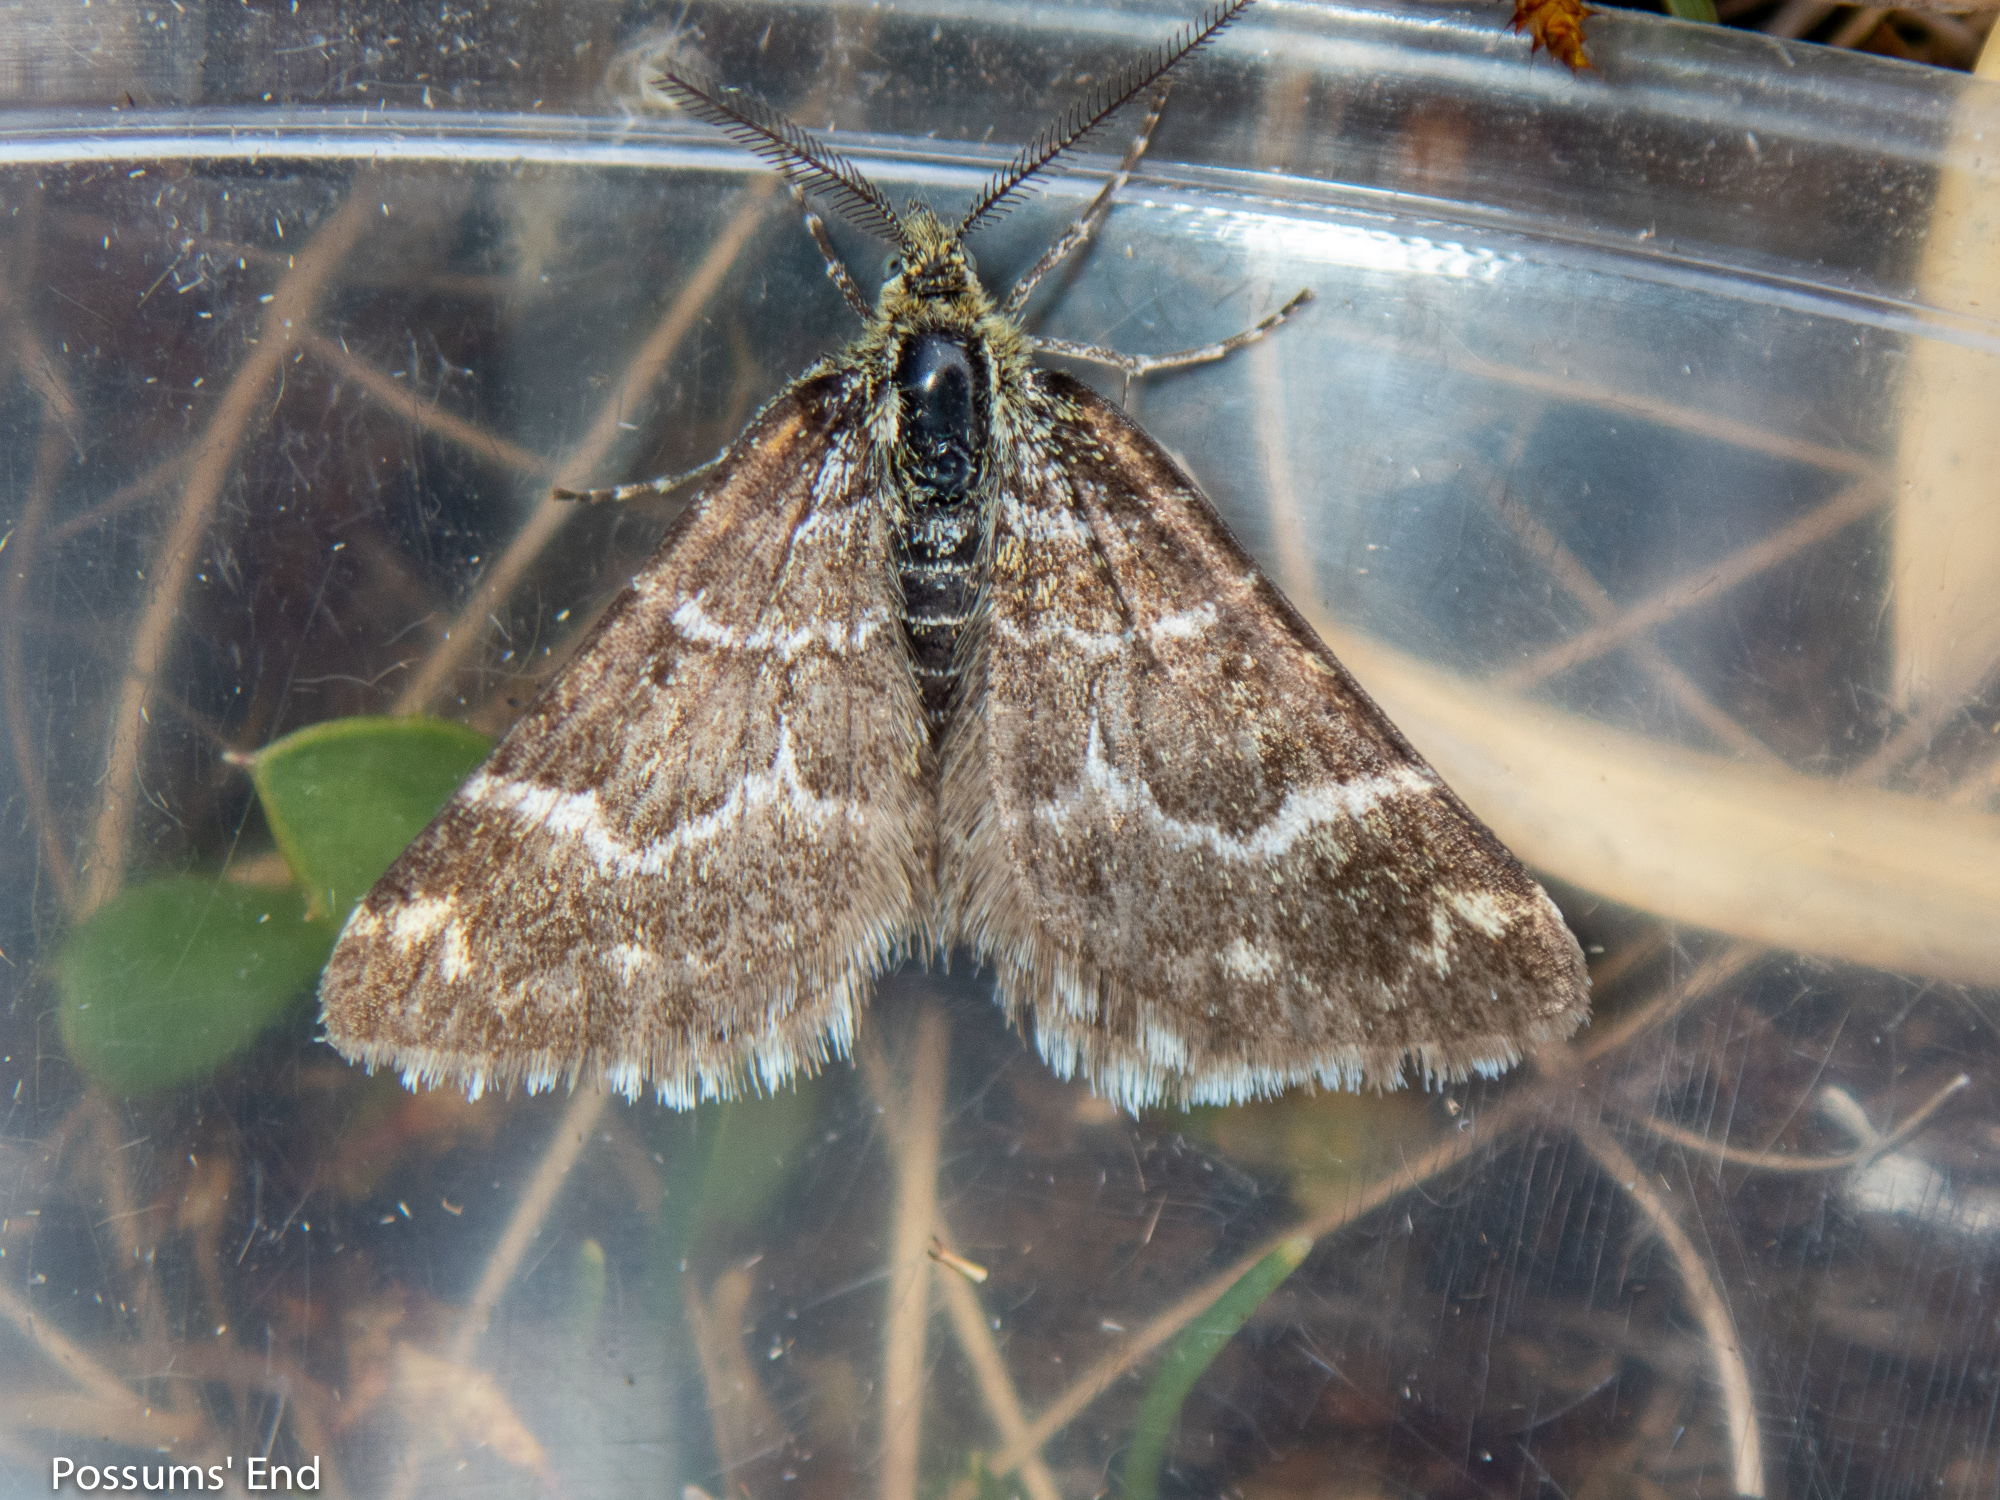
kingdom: Animalia
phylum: Arthropoda
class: Insecta
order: Lepidoptera
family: Geometridae
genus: Notoreas
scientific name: Notoreas paradelpha
